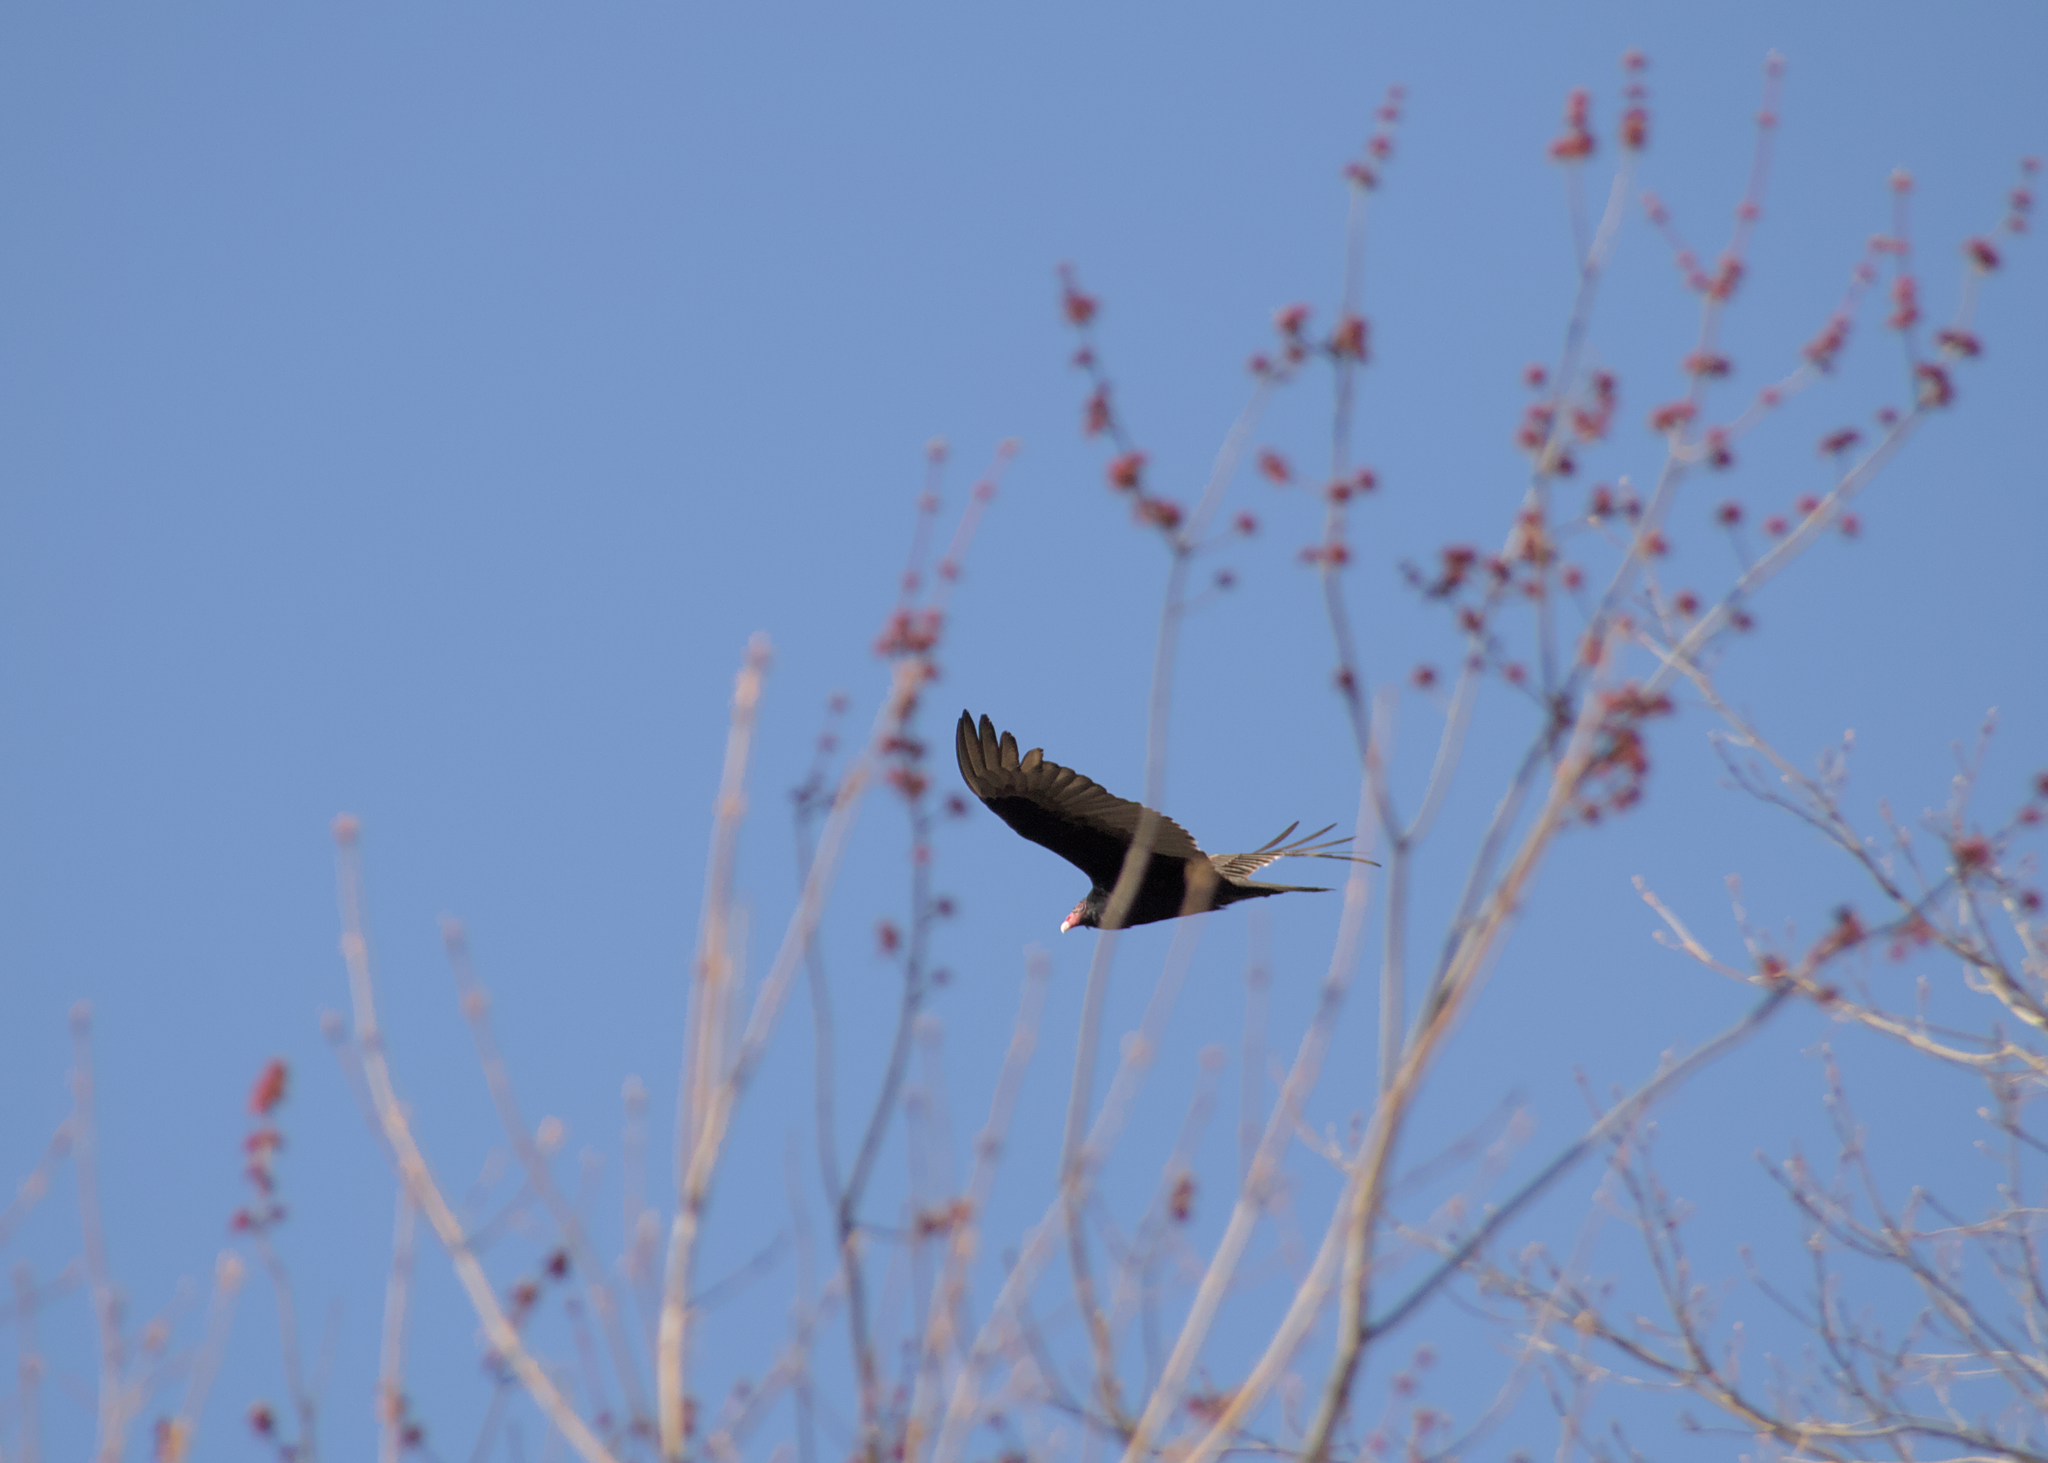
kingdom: Animalia
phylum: Chordata
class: Aves
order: Accipitriformes
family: Cathartidae
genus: Cathartes
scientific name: Cathartes aura
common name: Turkey vulture
